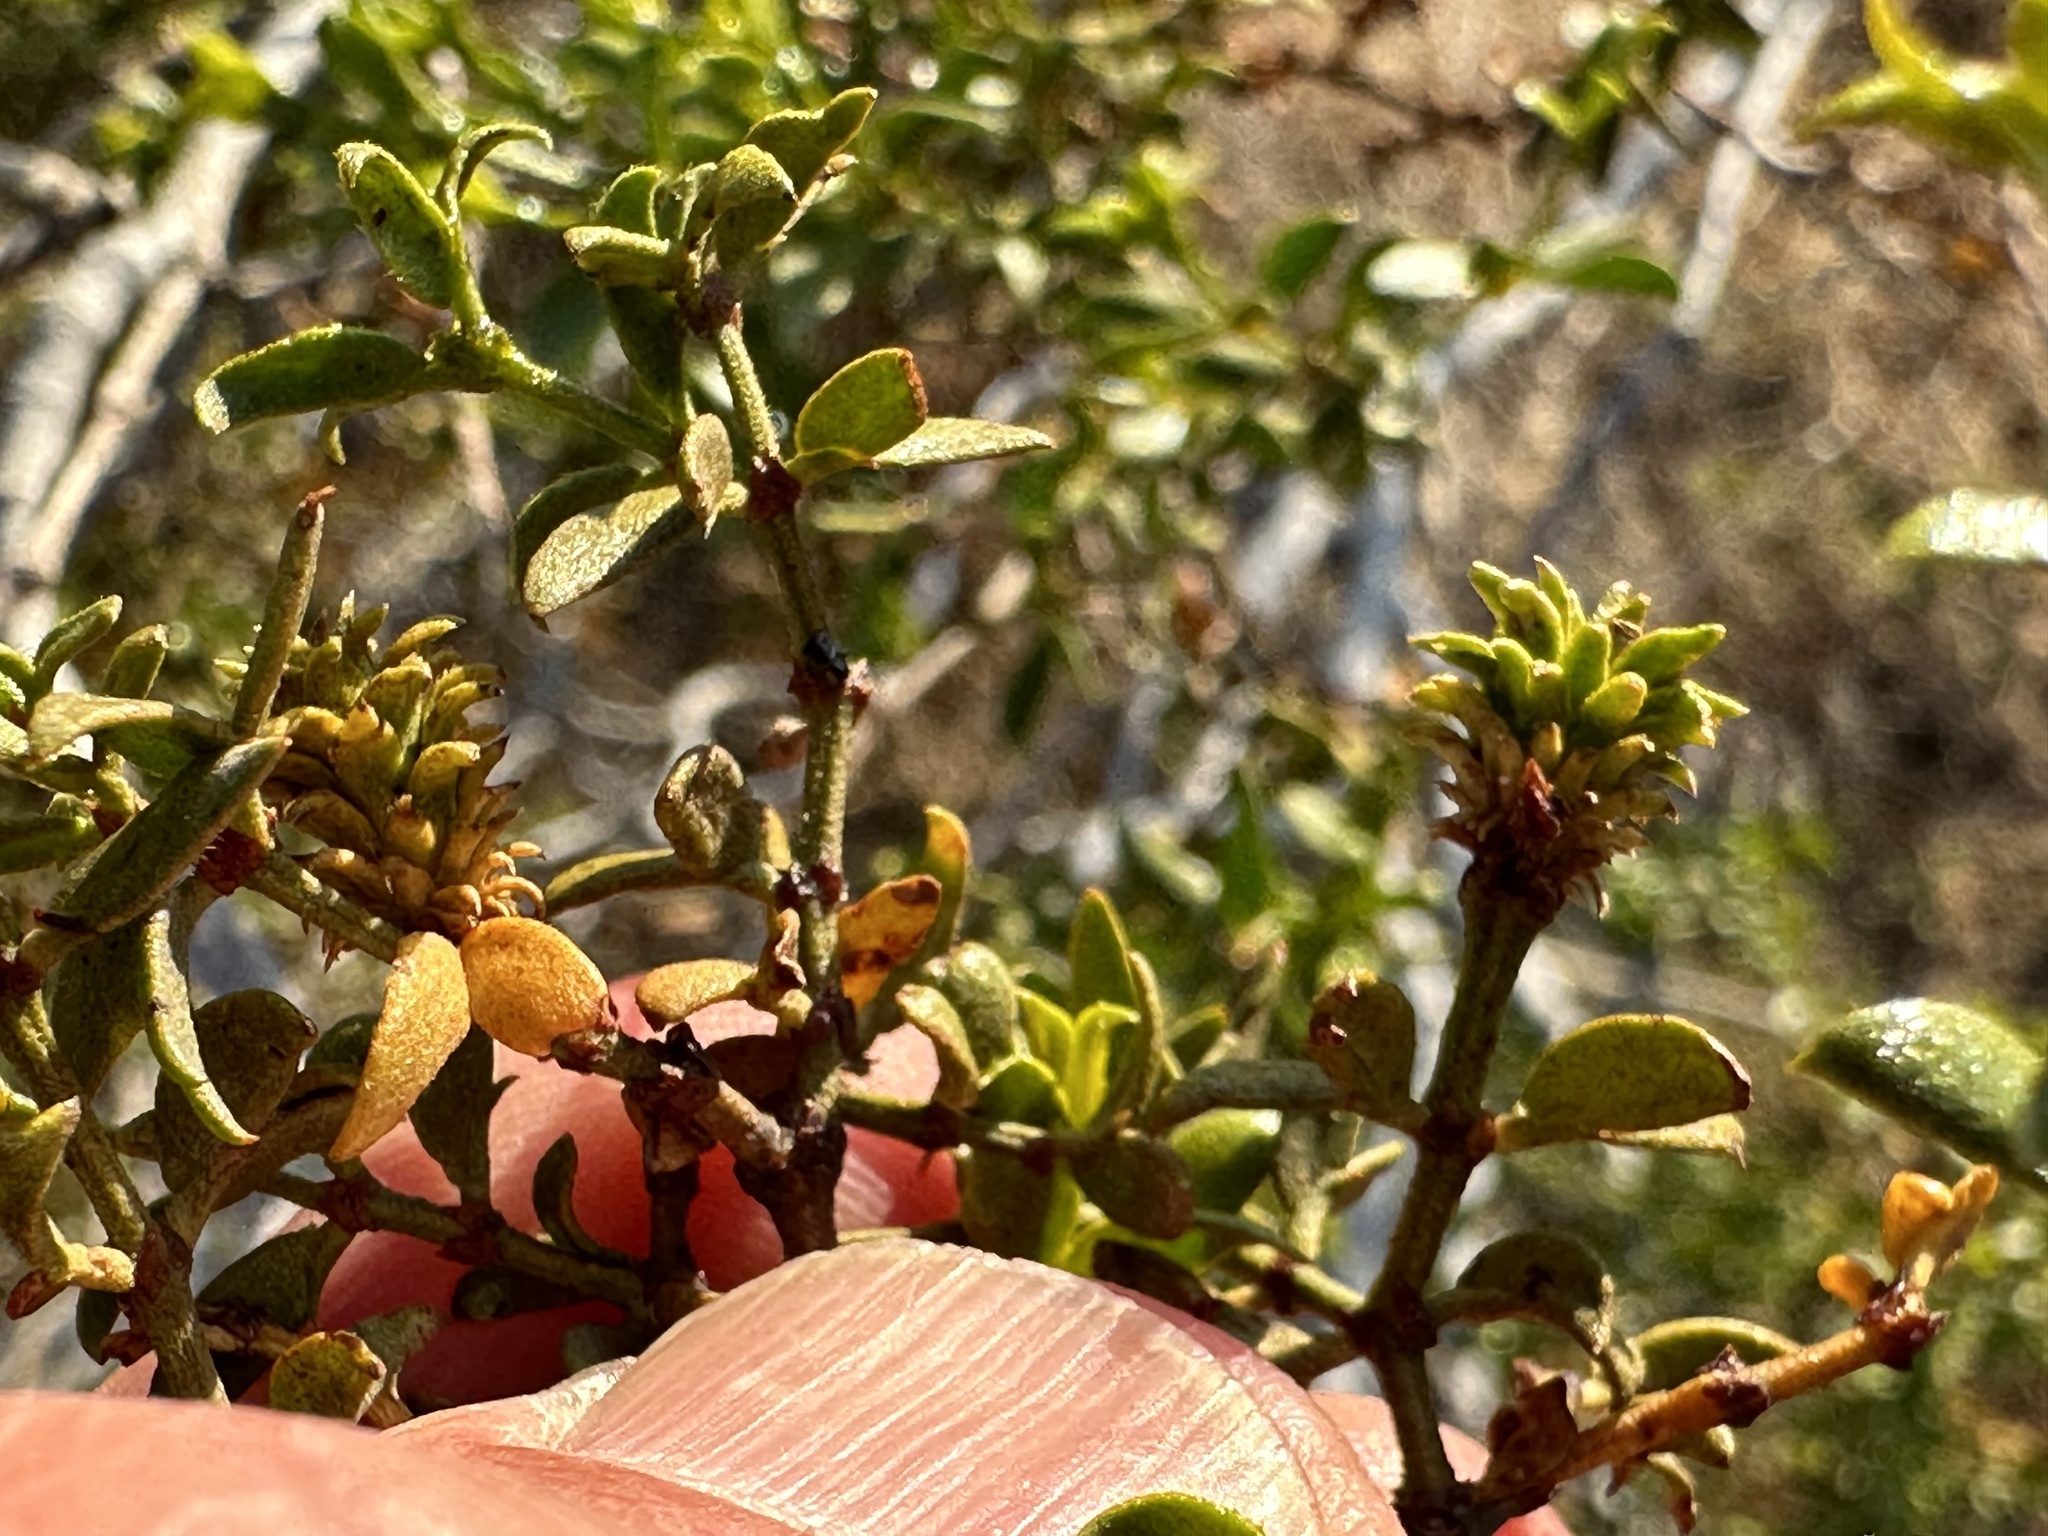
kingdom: Animalia
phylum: Arthropoda
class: Insecta
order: Diptera
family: Cecidomyiidae
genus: Asphondylia
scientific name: Asphondylia rosetta
